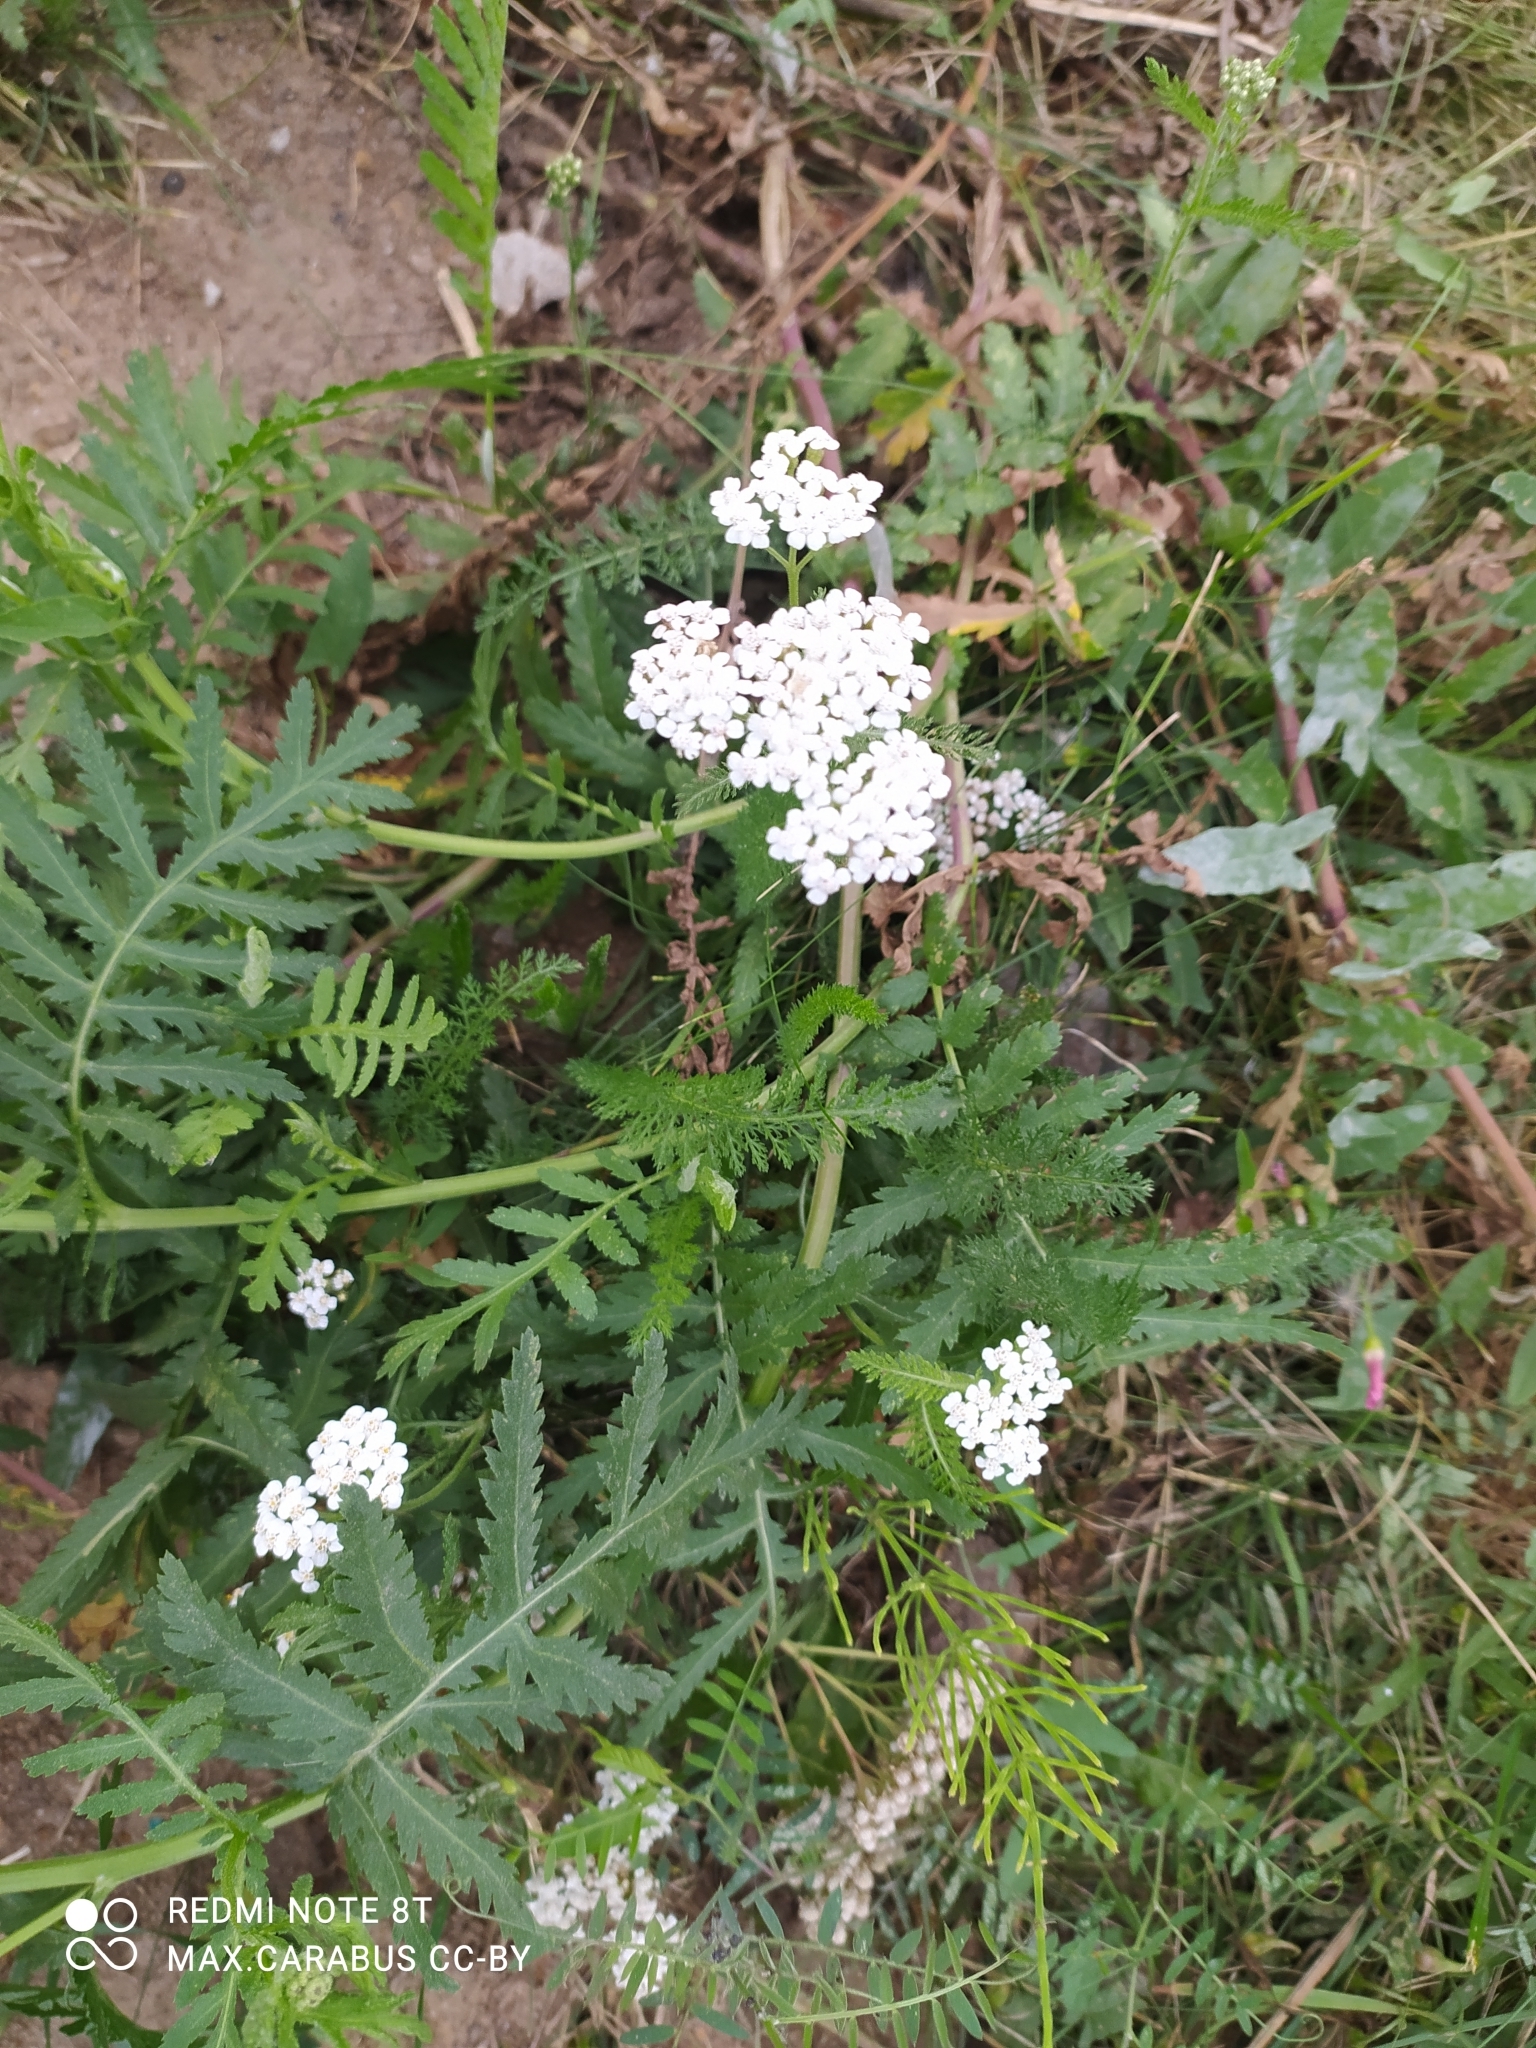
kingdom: Plantae
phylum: Tracheophyta
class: Magnoliopsida
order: Asterales
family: Asteraceae
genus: Achillea
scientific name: Achillea millefolium
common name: Yarrow
